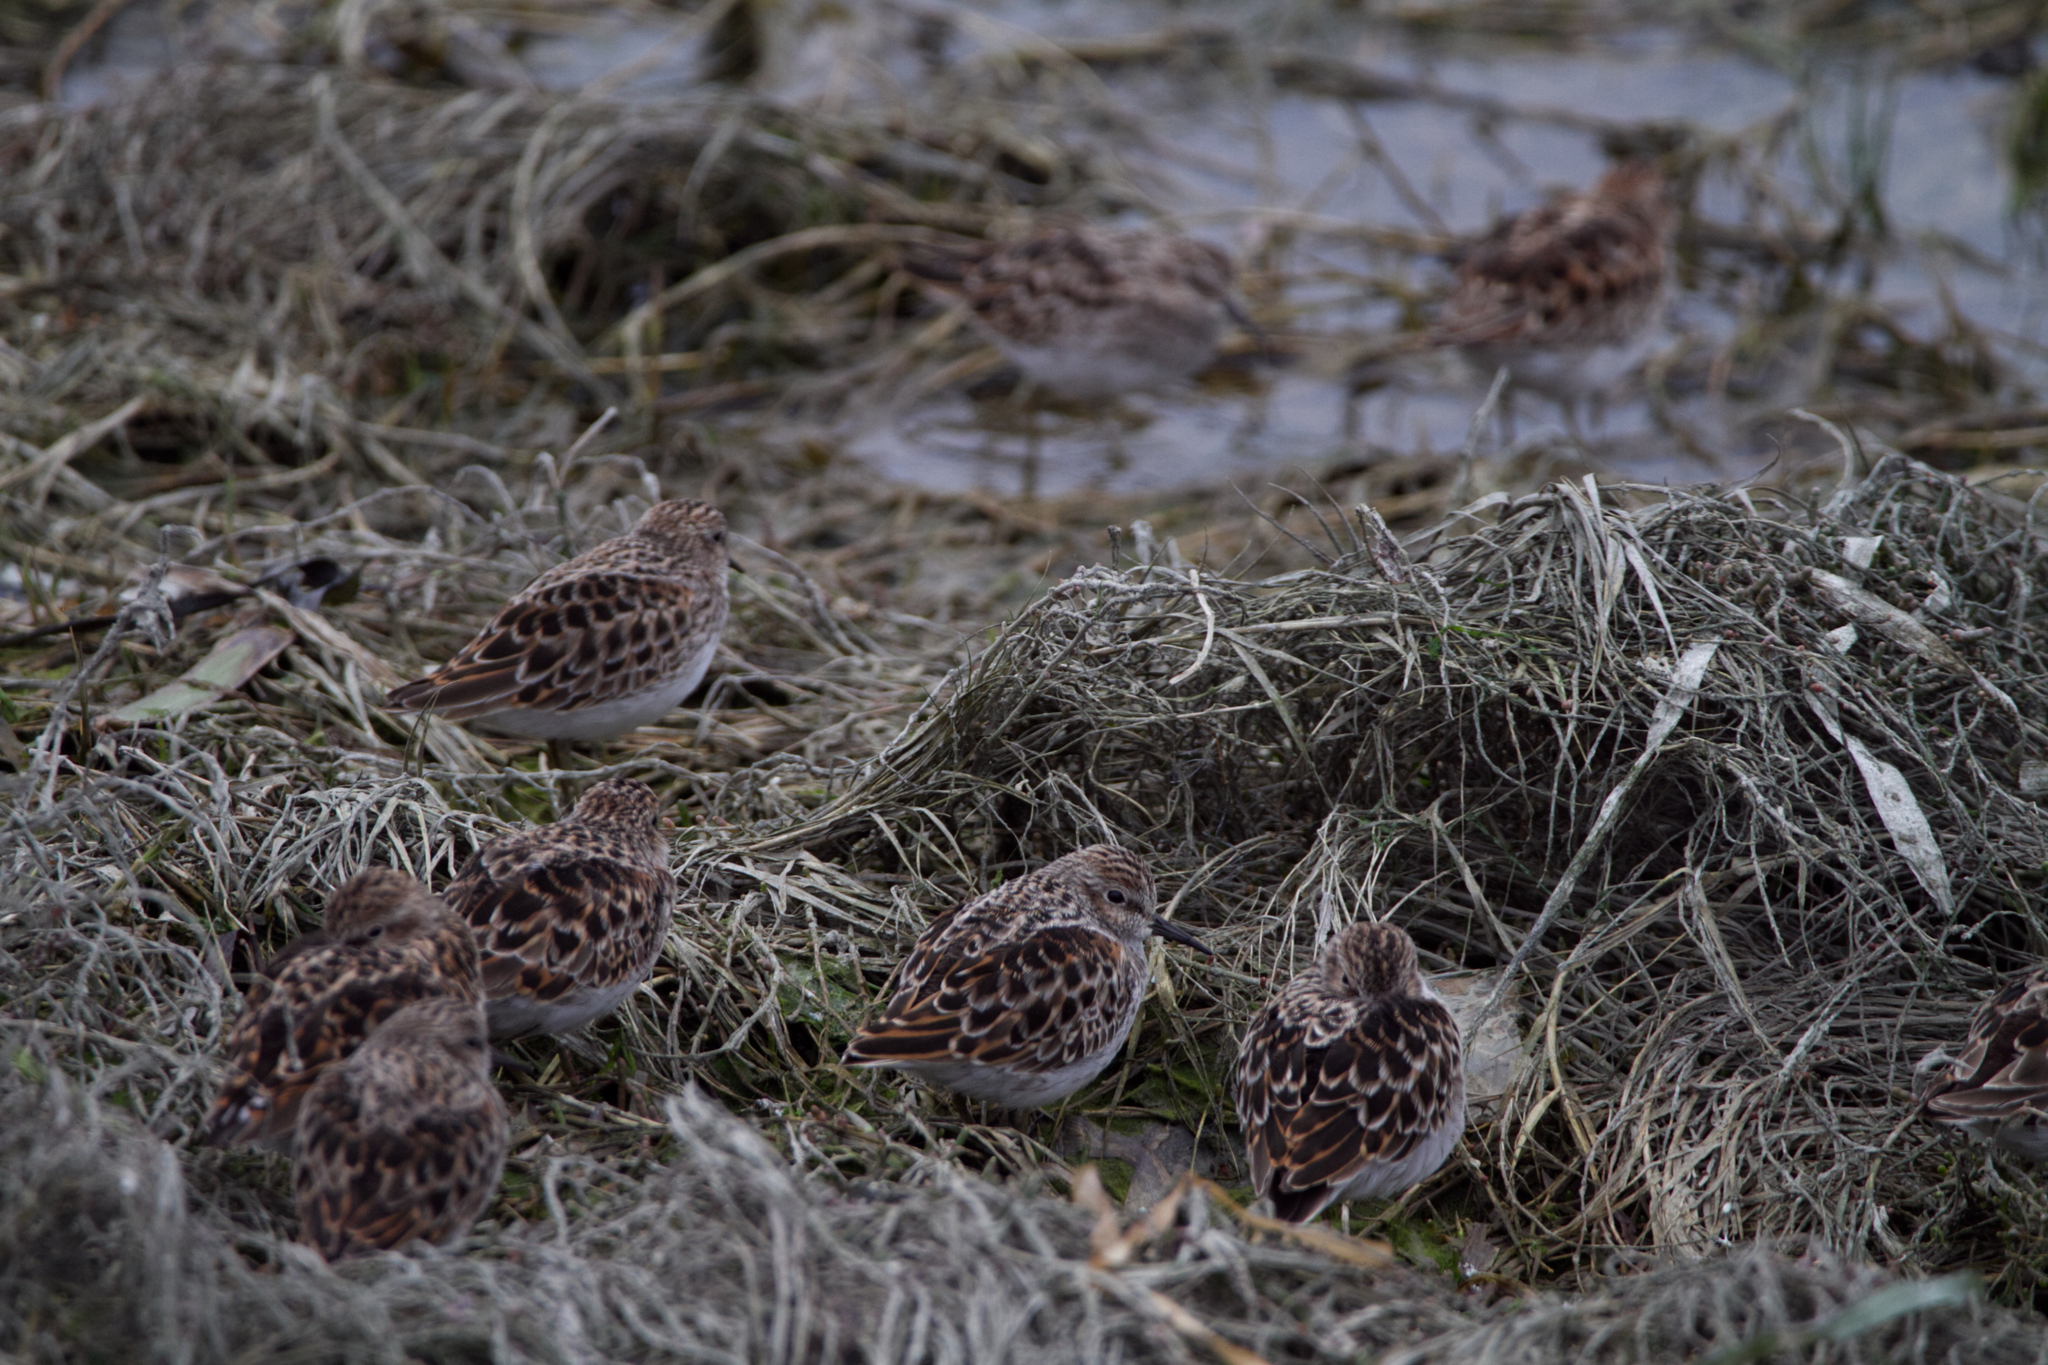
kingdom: Animalia
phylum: Chordata
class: Aves
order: Charadriiformes
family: Scolopacidae
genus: Calidris
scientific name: Calidris minutilla
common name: Least sandpiper
